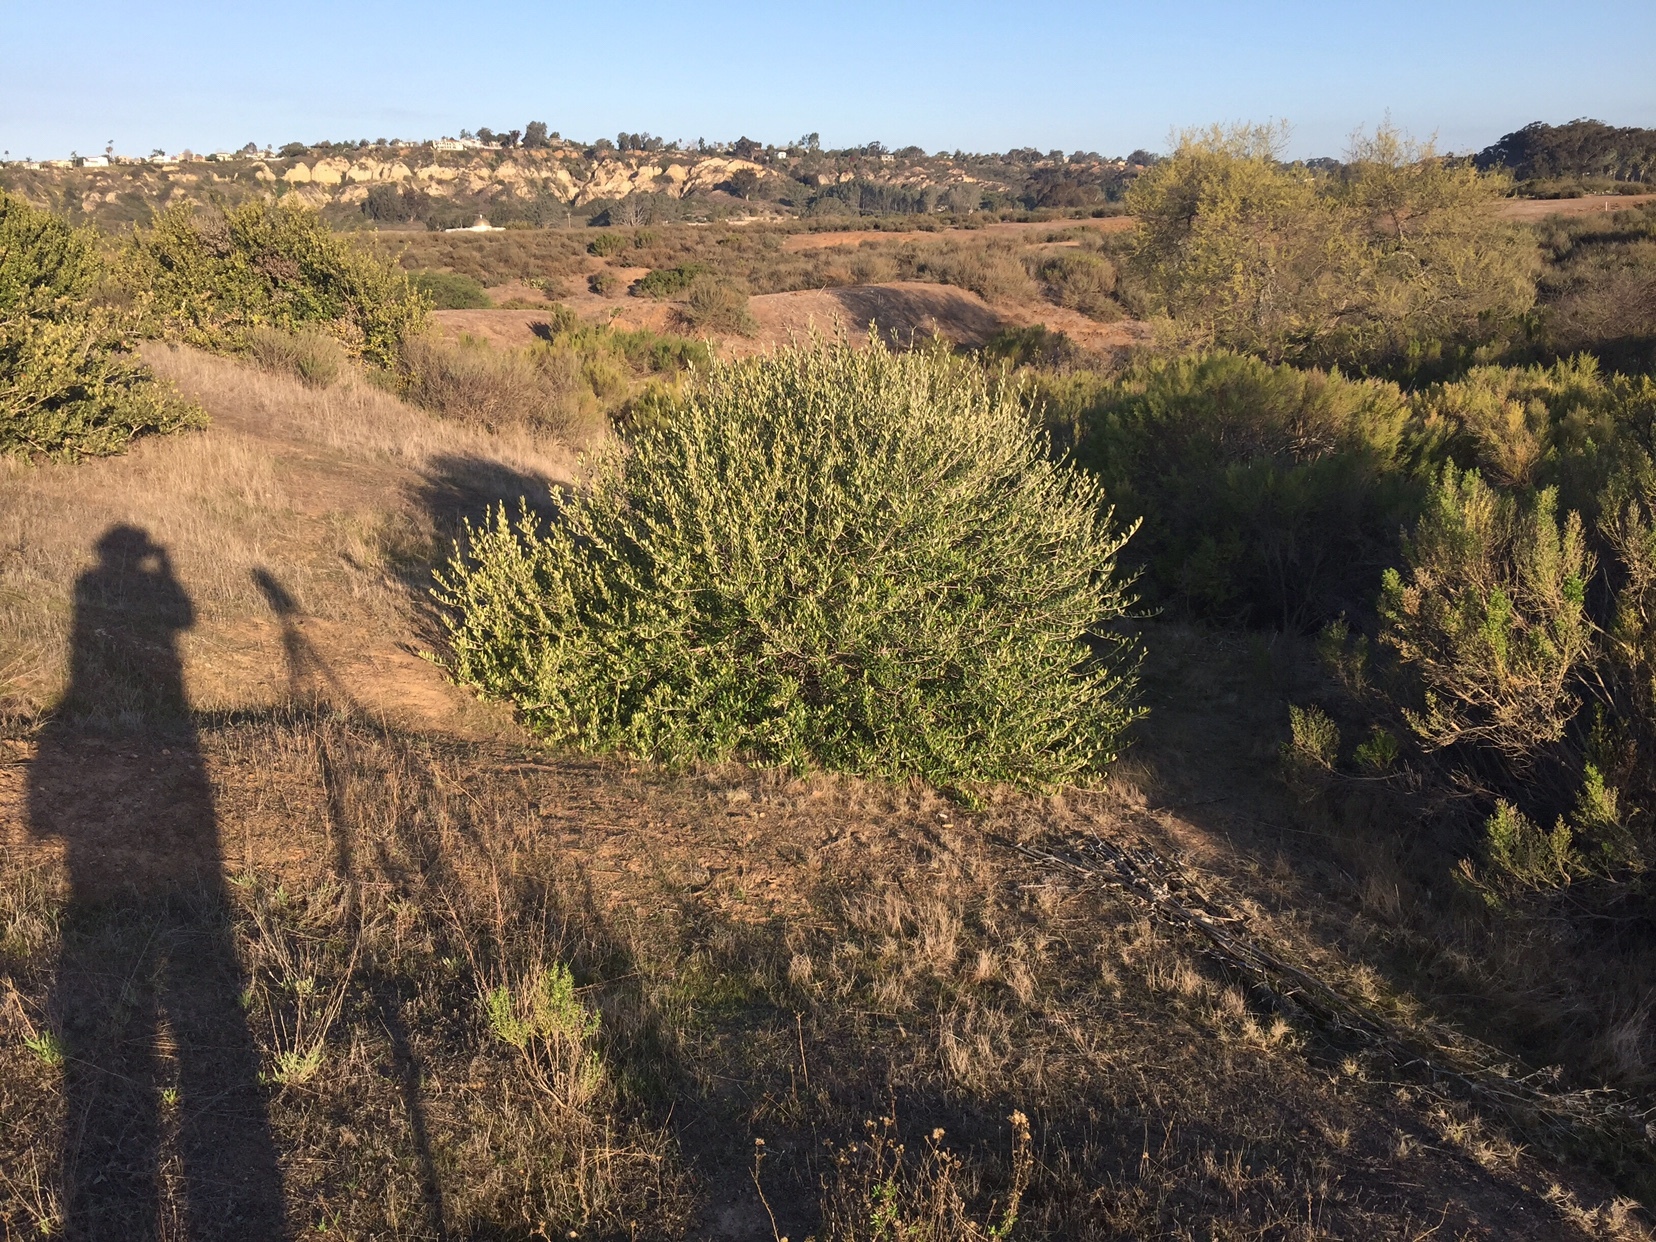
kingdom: Plantae
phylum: Tracheophyta
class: Magnoliopsida
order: Lamiales
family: Oleaceae
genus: Olea
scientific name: Olea europaea
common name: Olive
